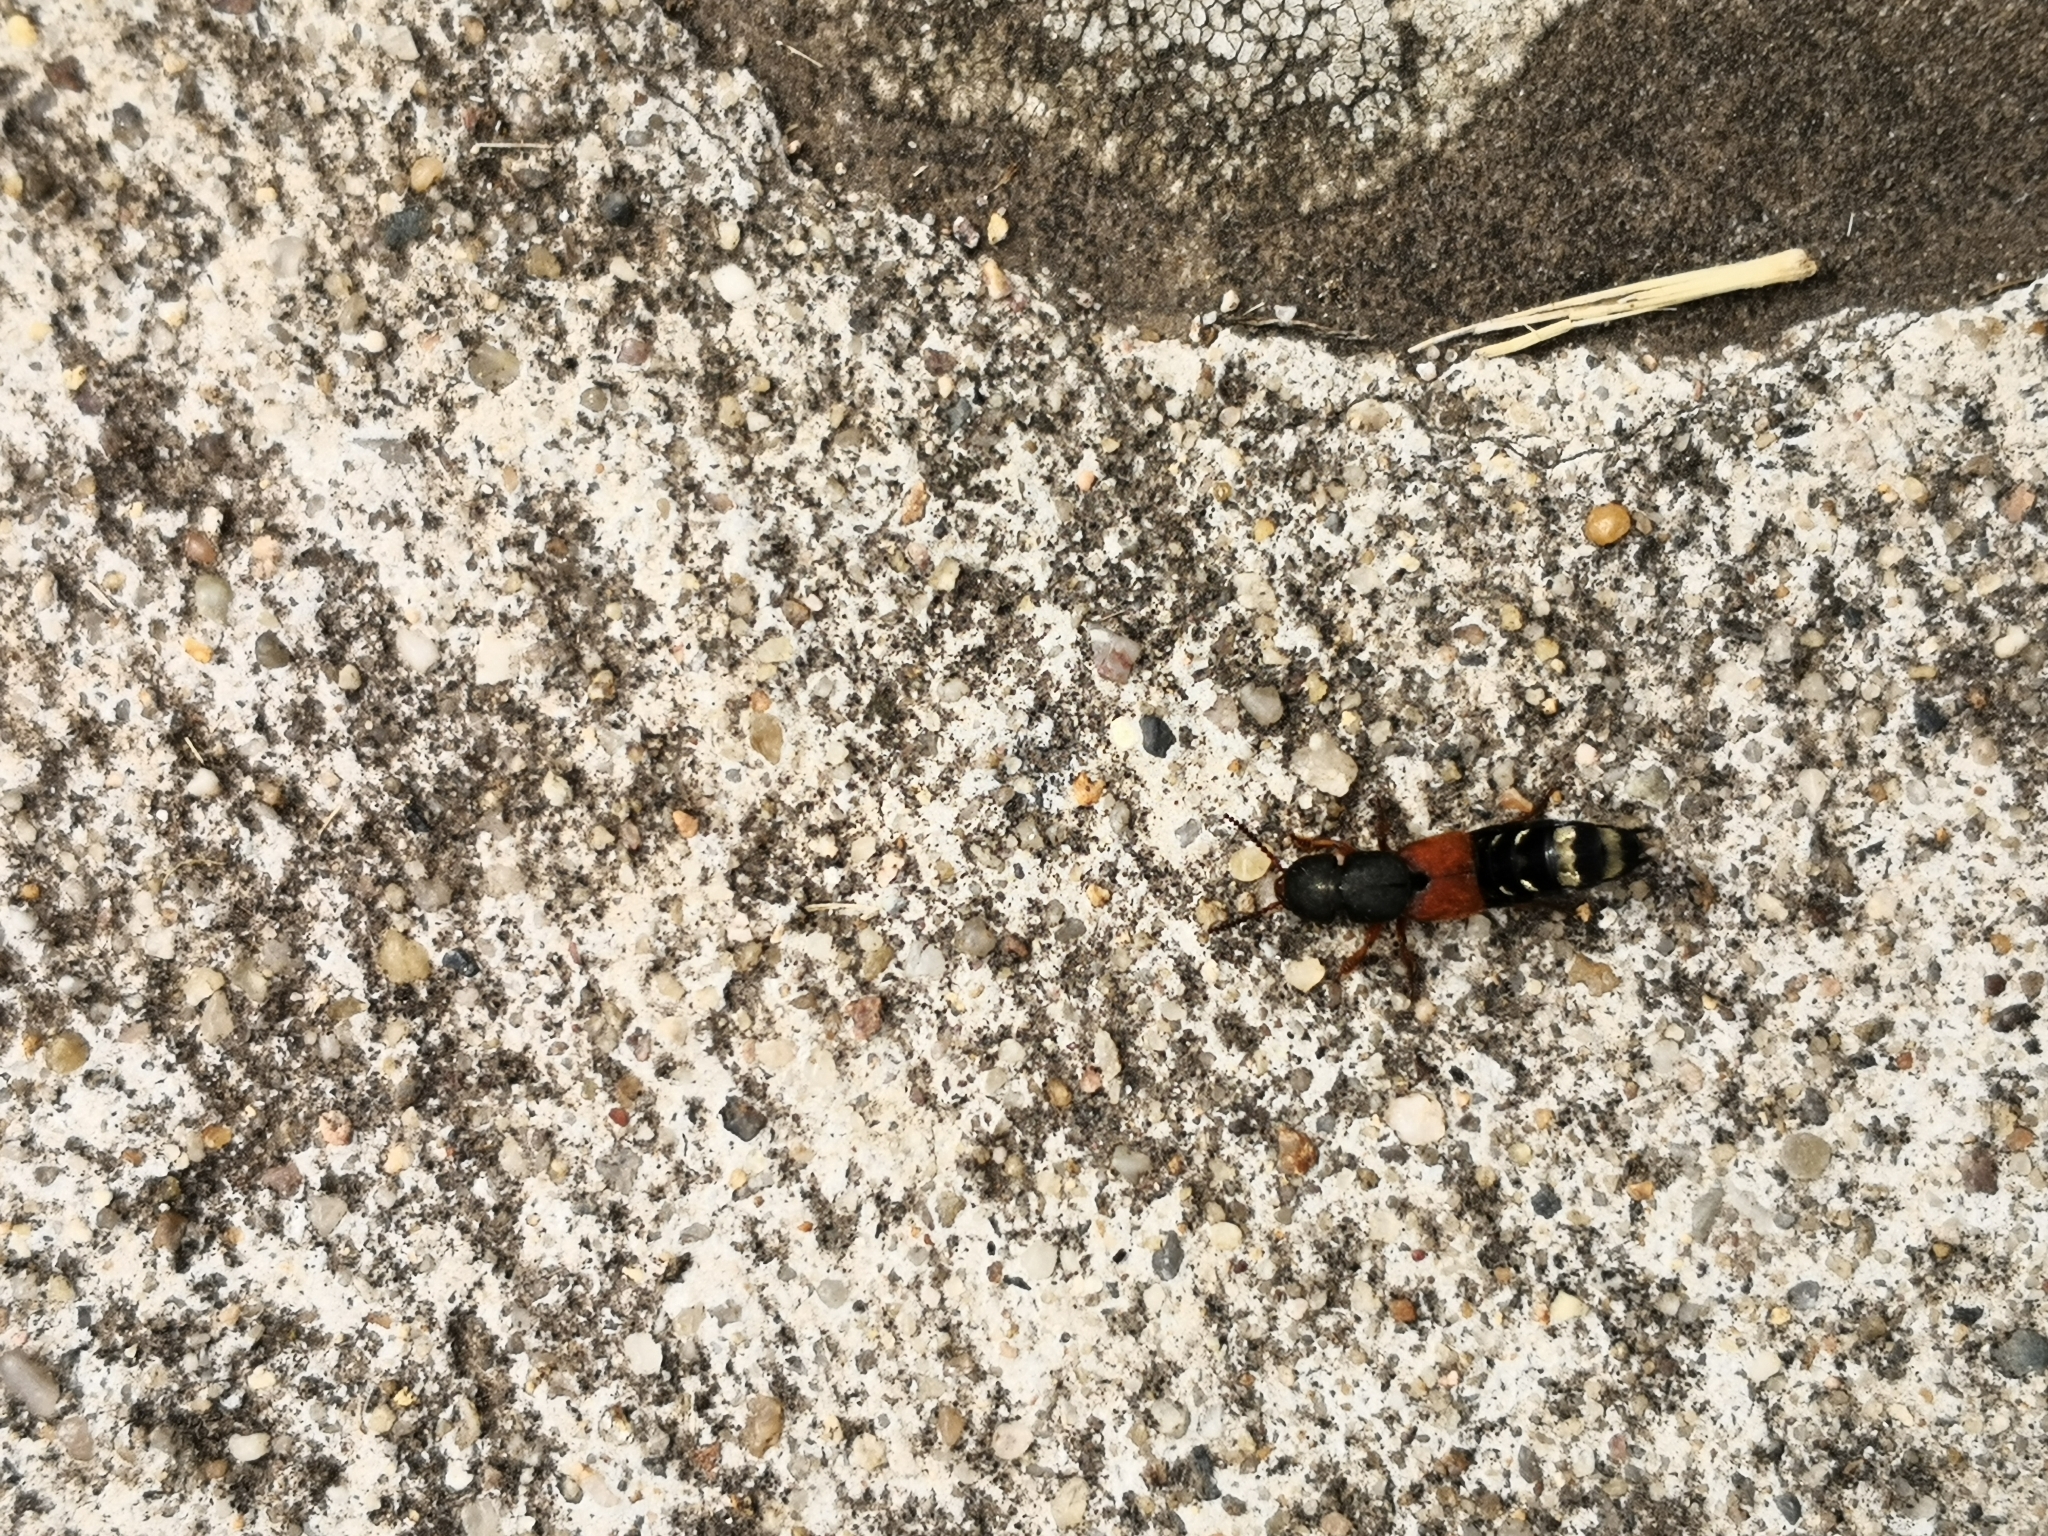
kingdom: Animalia
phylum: Arthropoda
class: Insecta
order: Coleoptera
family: Staphylinidae
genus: Platydracus
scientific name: Platydracus stercorarius
